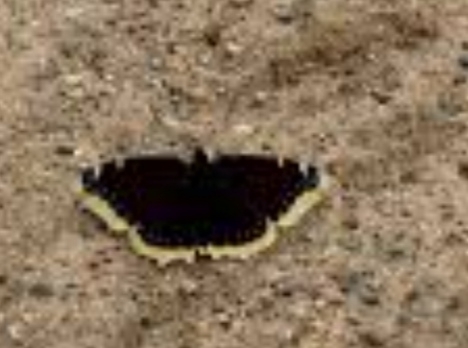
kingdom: Animalia
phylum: Arthropoda
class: Insecta
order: Lepidoptera
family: Nymphalidae
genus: Nymphalis
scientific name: Nymphalis antiopa
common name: Camberwell beauty
